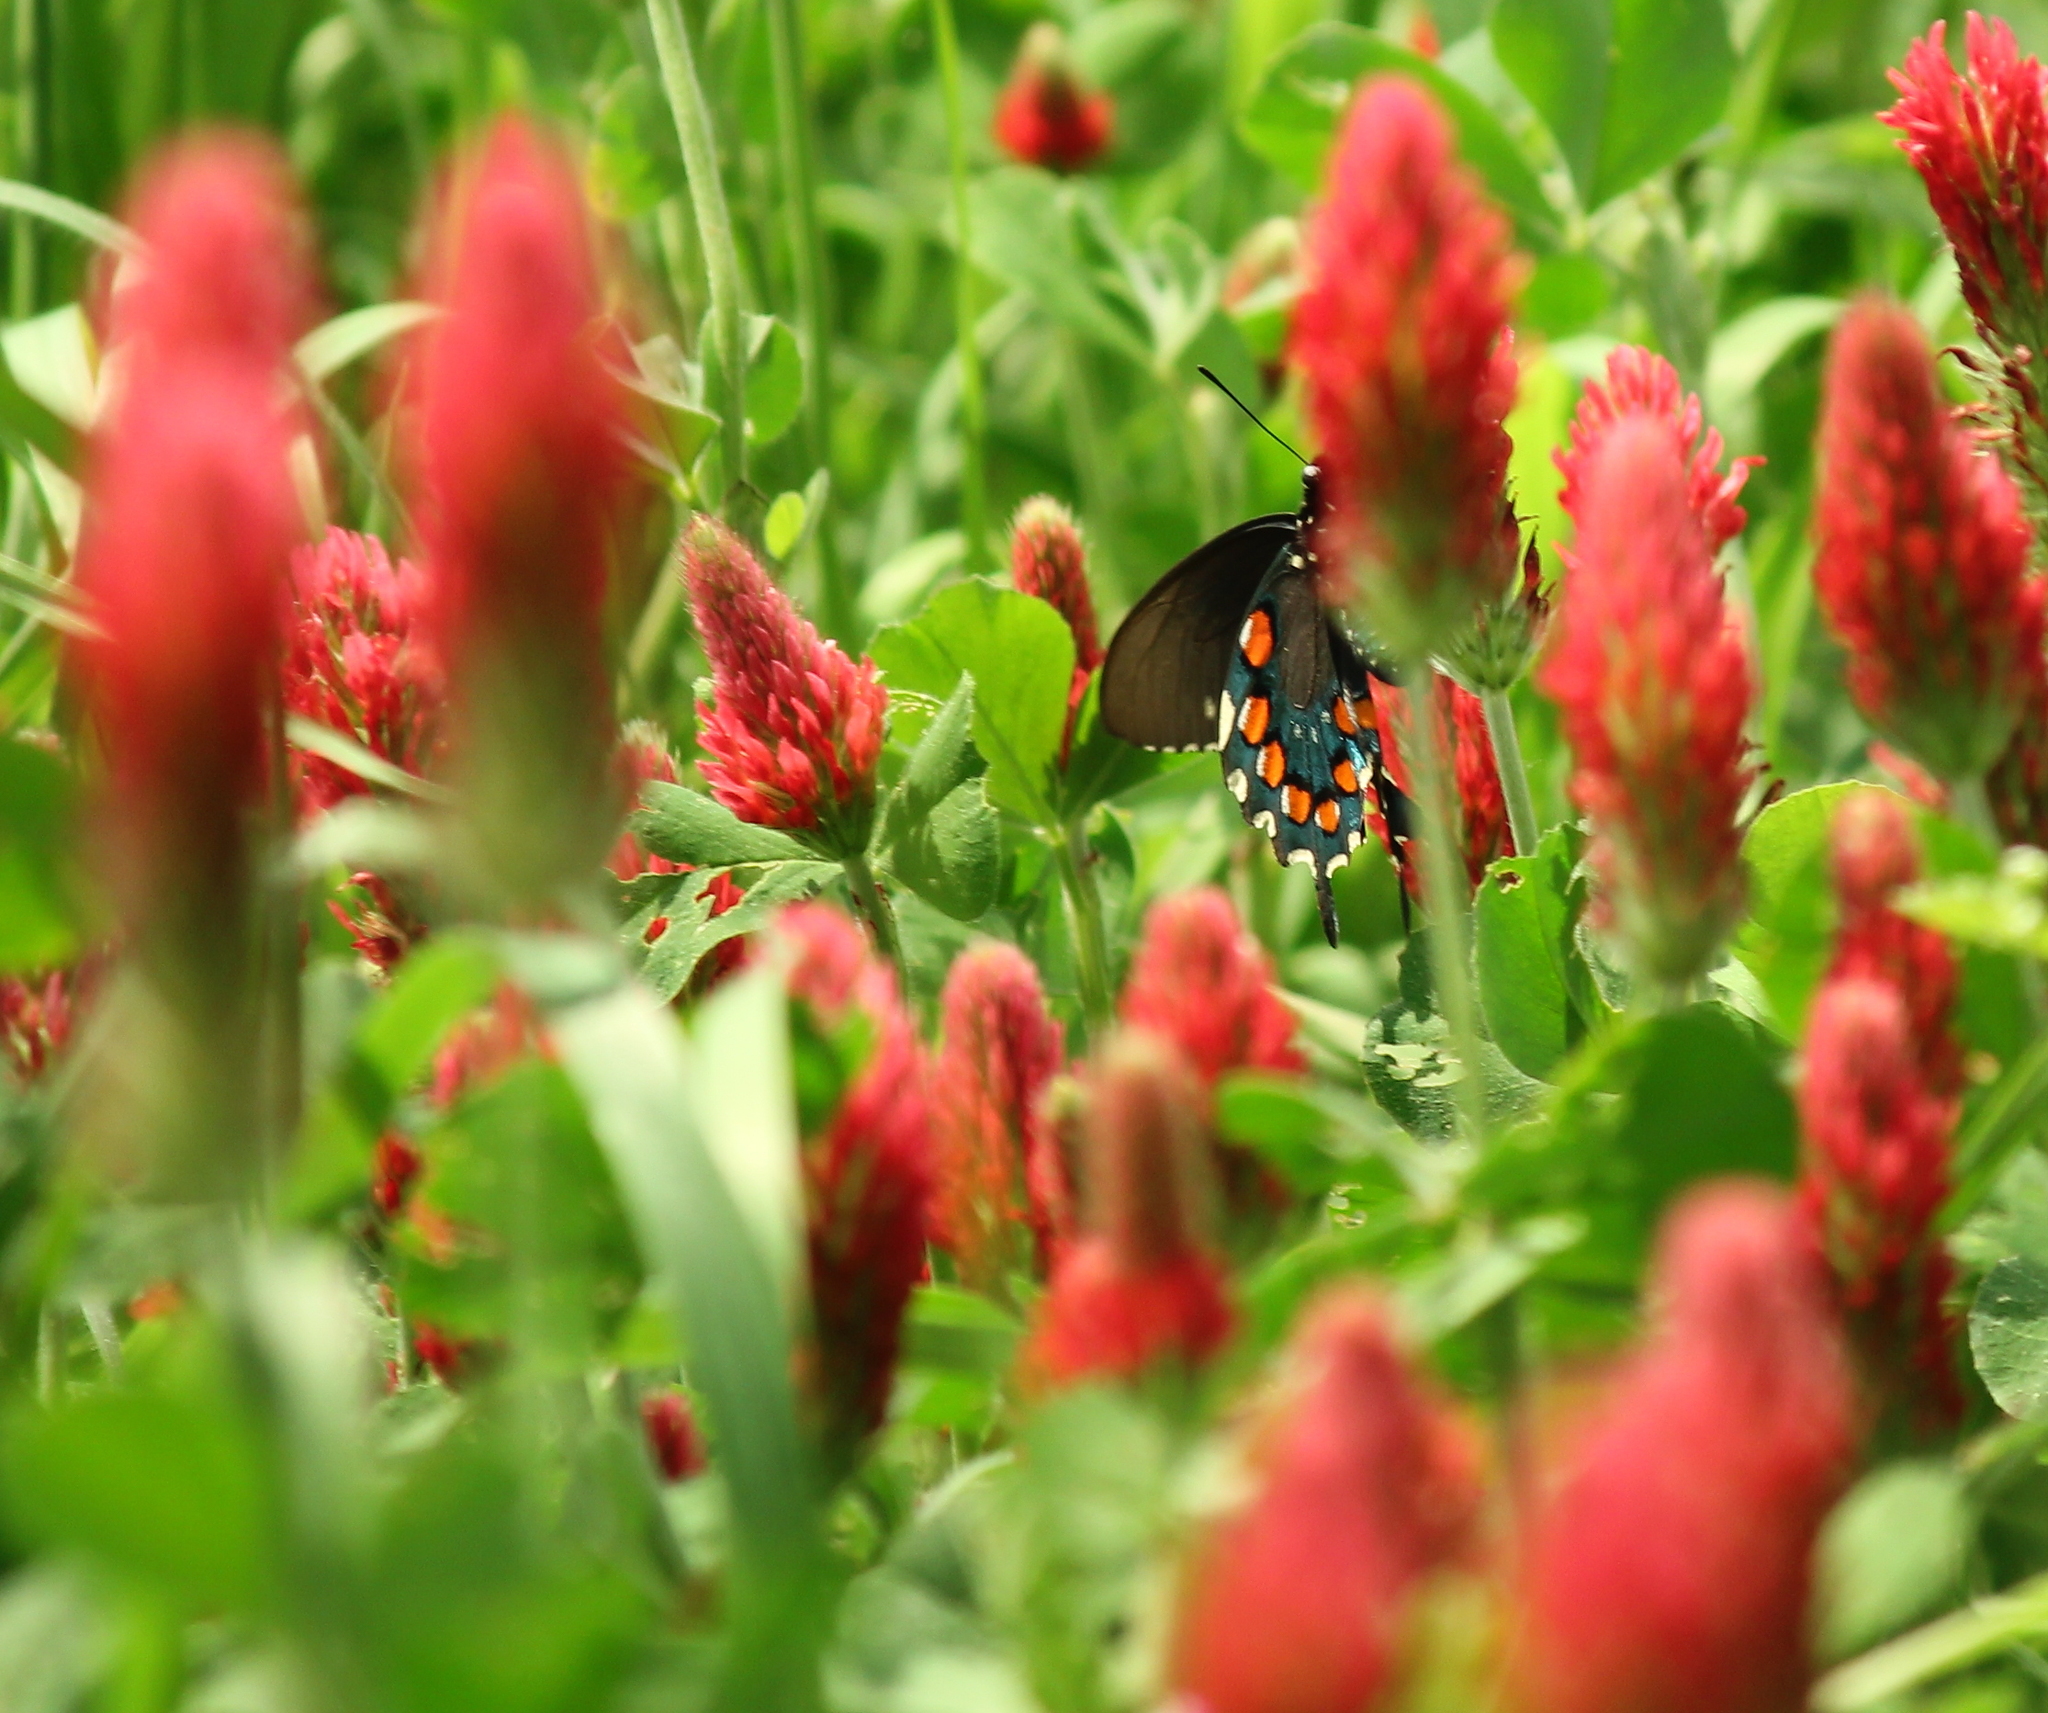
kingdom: Animalia
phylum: Arthropoda
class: Insecta
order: Lepidoptera
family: Papilionidae
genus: Battus
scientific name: Battus philenor
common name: Pipevine swallowtail
